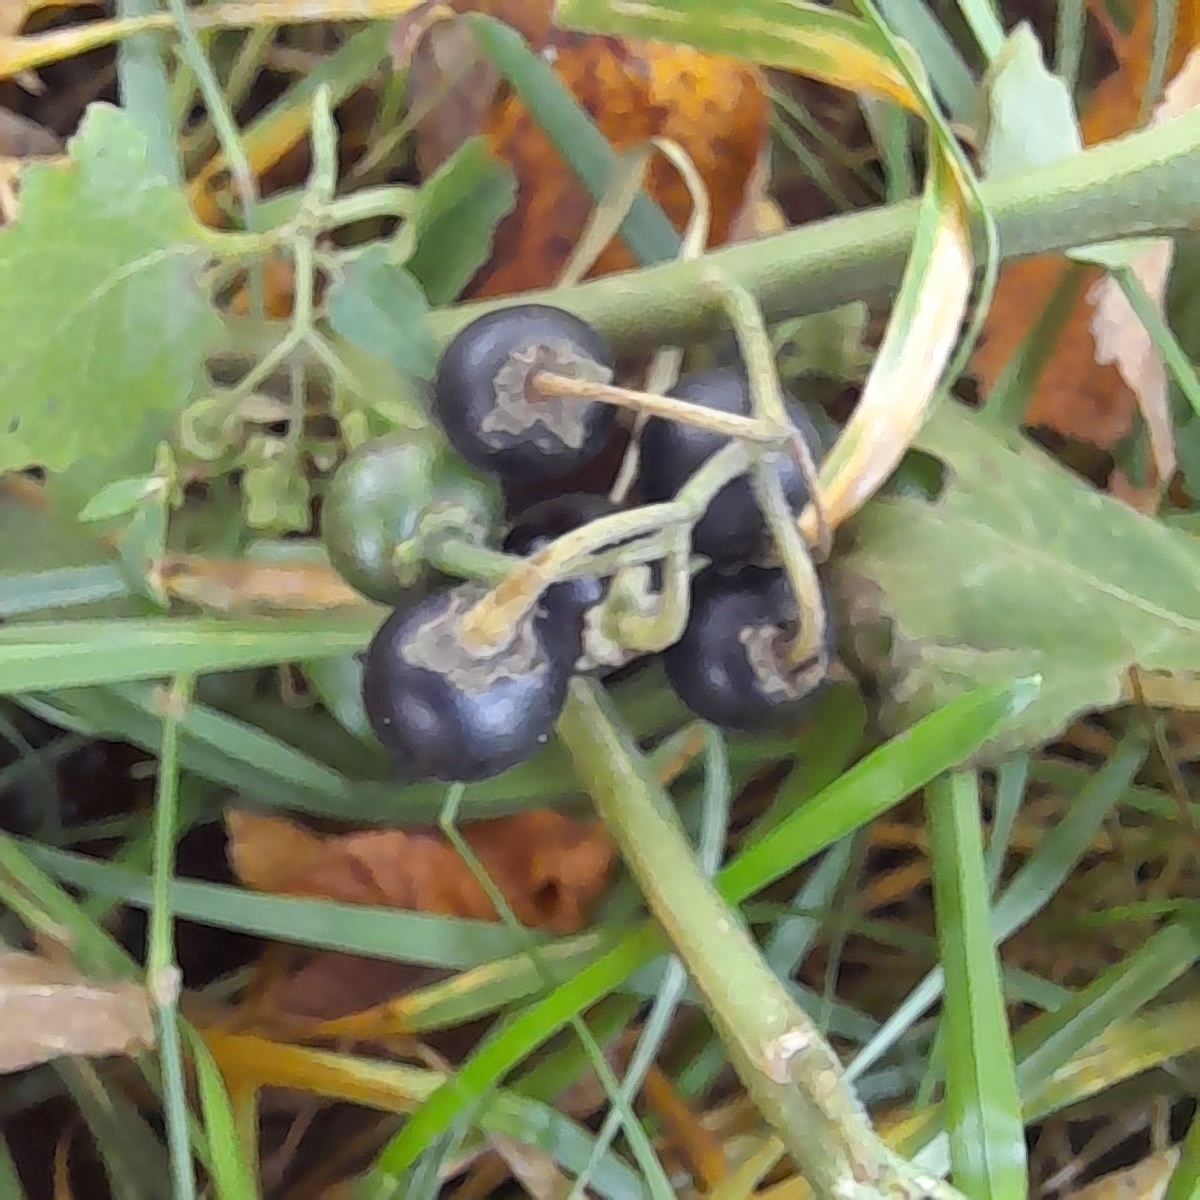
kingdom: Plantae
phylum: Tracheophyta
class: Magnoliopsida
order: Solanales
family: Solanaceae
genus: Solanum
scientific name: Solanum nigrum
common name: Black nightshade
